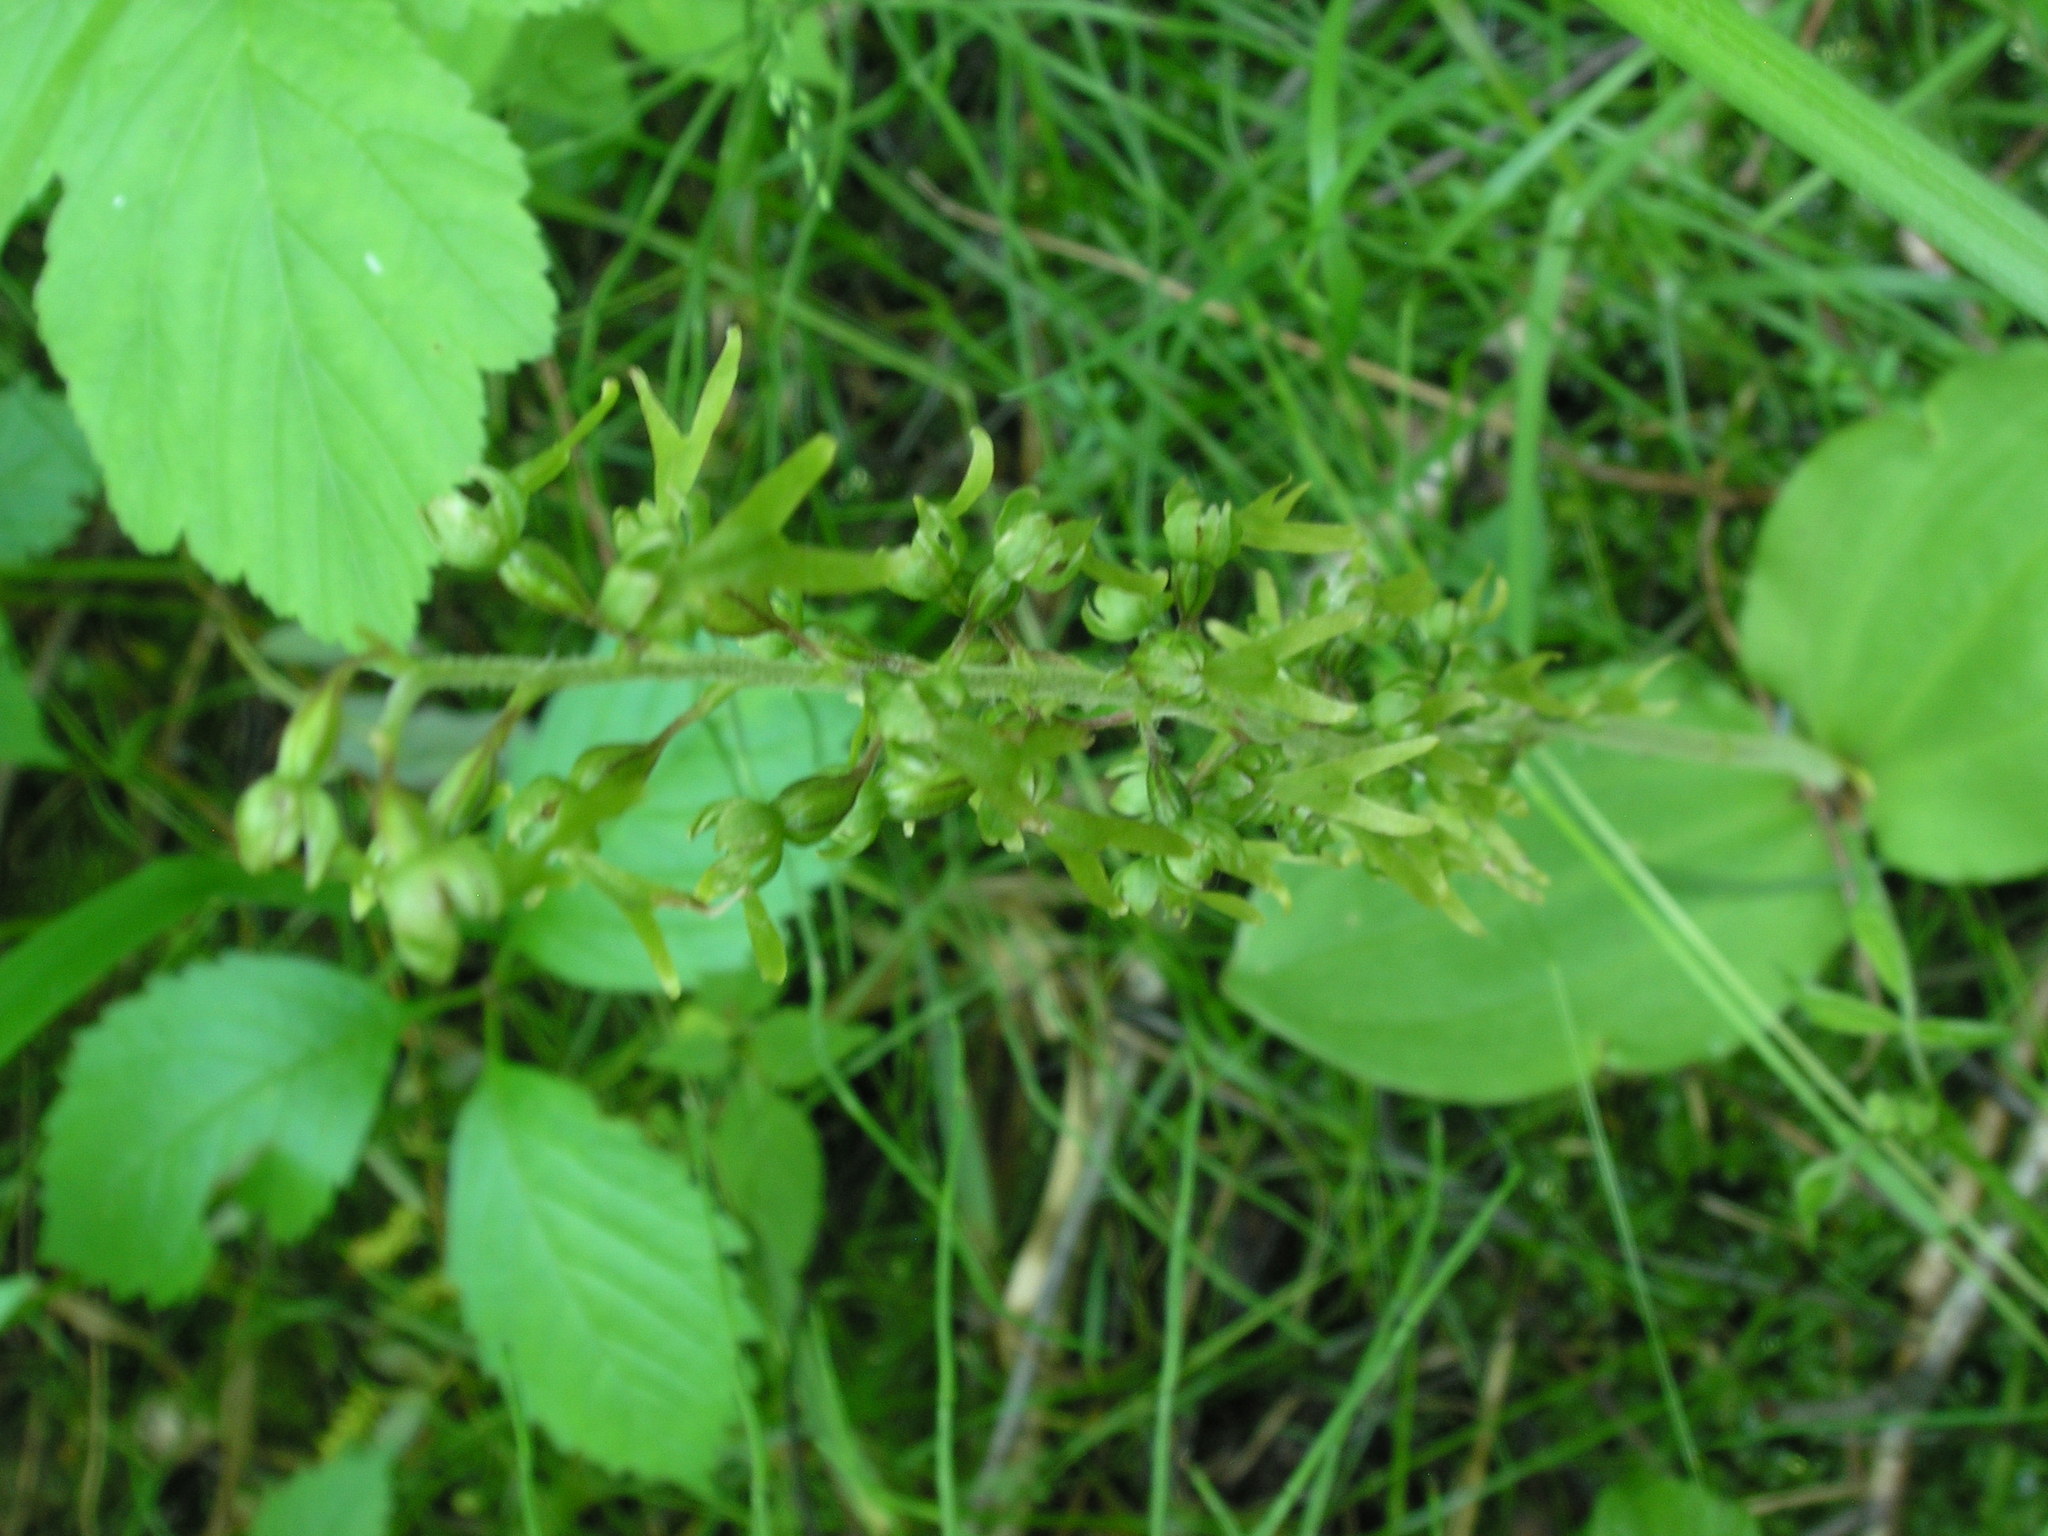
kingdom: Plantae
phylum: Tracheophyta
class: Liliopsida
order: Asparagales
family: Orchidaceae
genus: Neottia
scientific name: Neottia ovata
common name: Common twayblade
